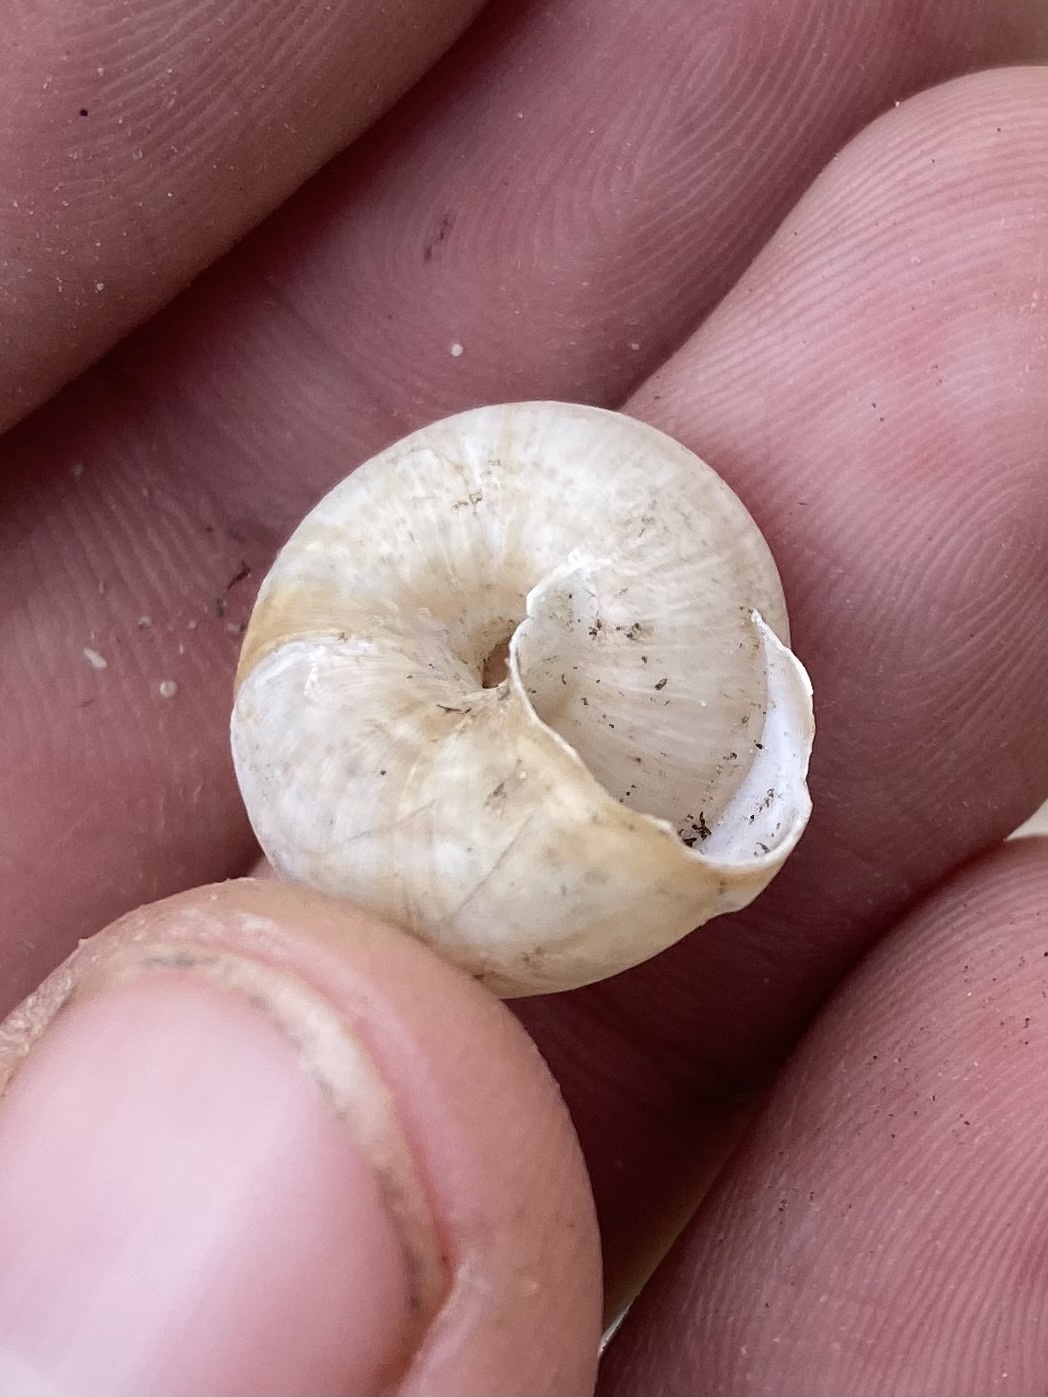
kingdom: Animalia
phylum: Mollusca
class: Gastropoda
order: Stylommatophora
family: Hygromiidae
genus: Fruticocampylaea
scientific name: Fruticocampylaea narzanensis
